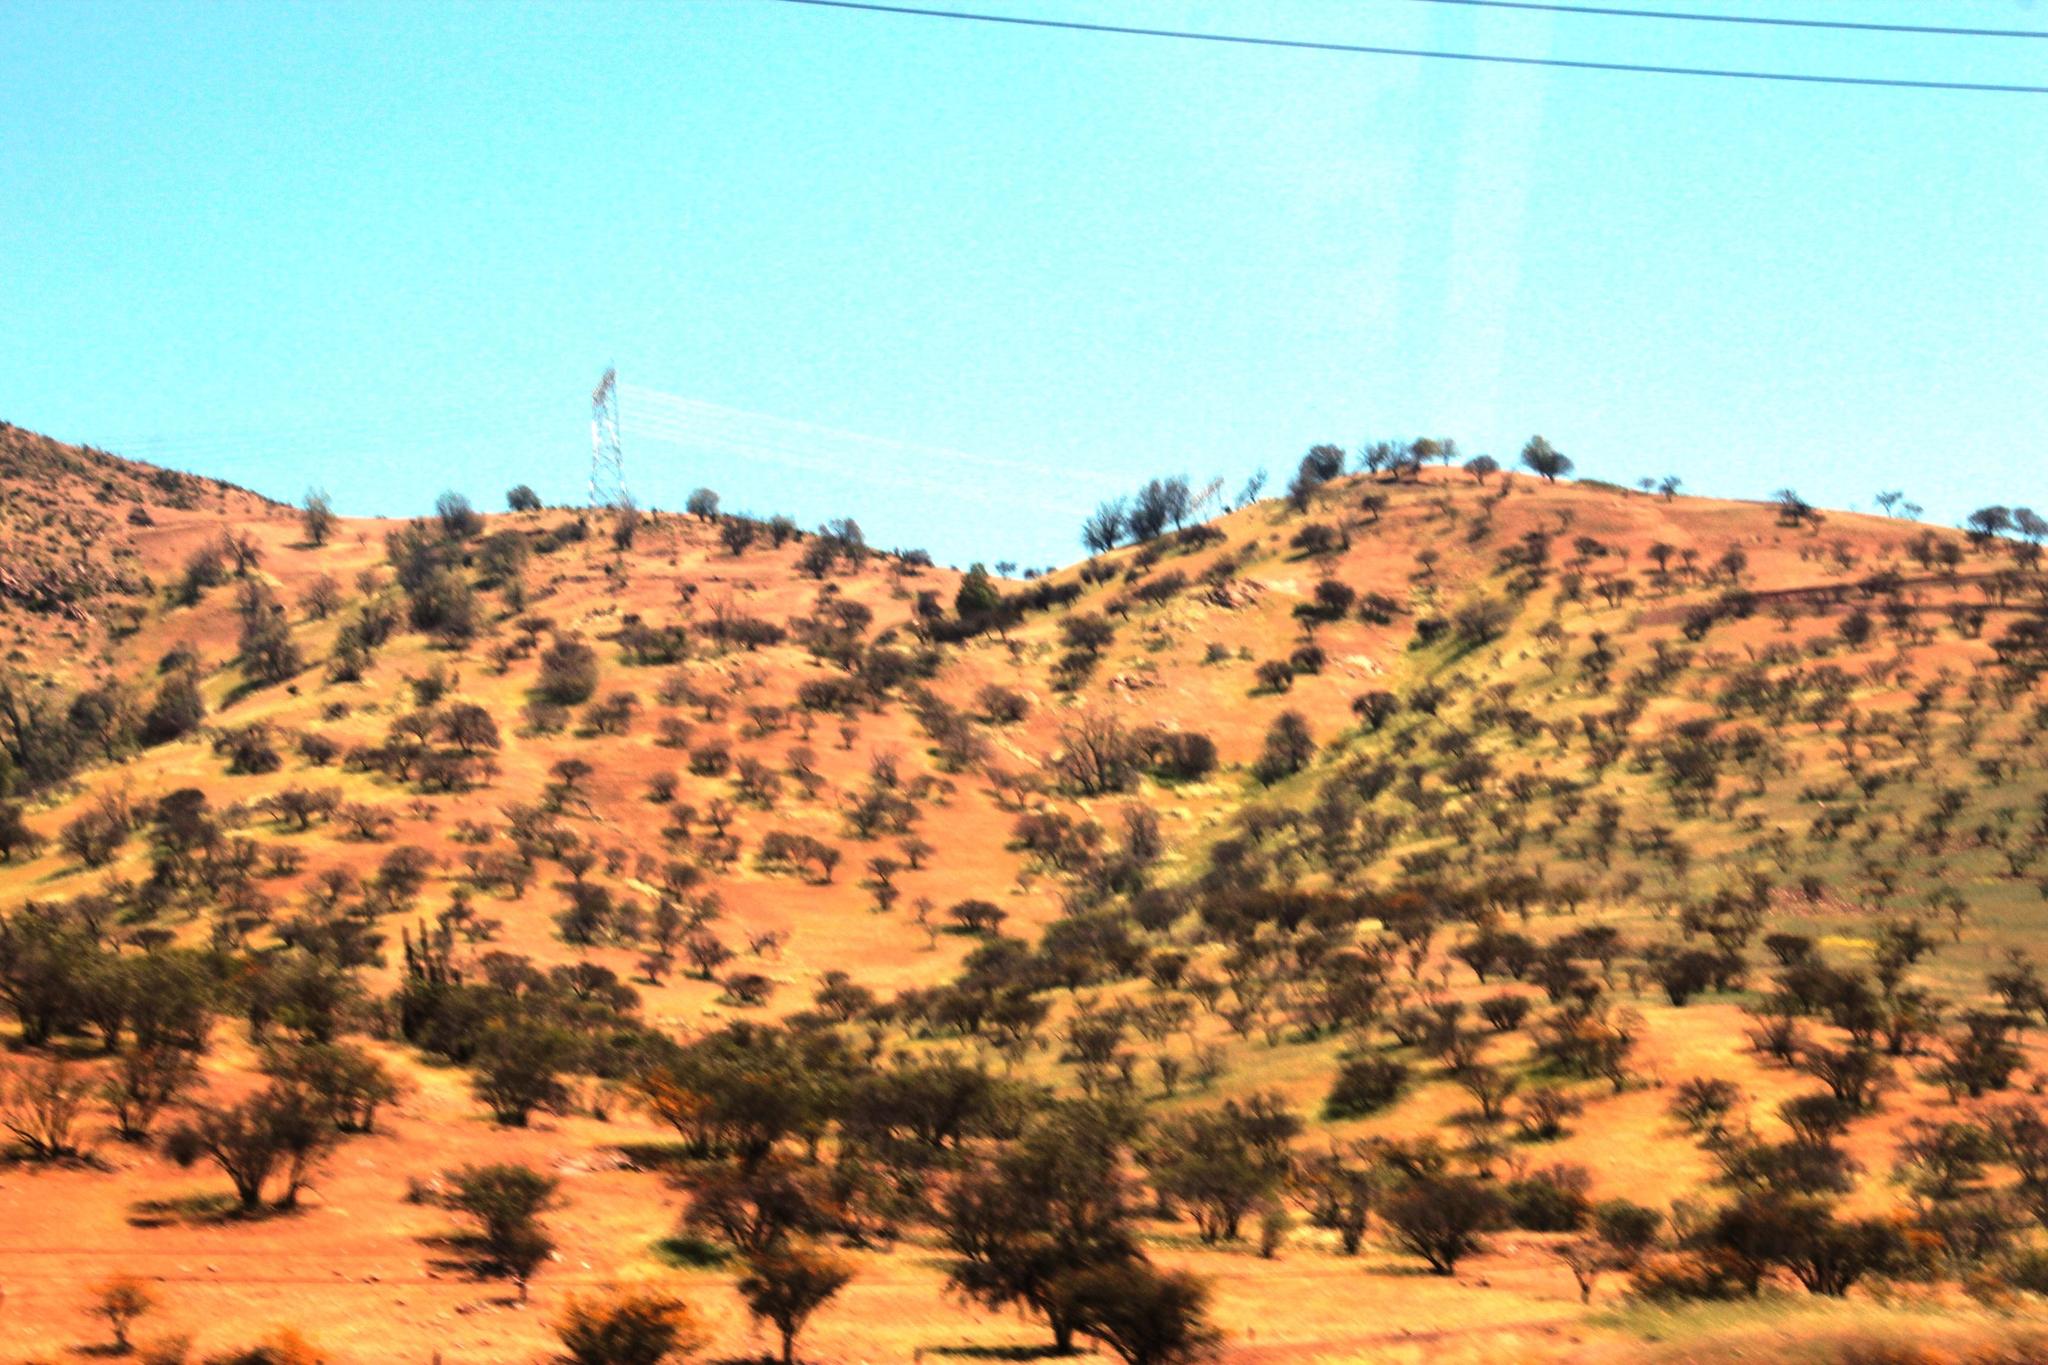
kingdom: Plantae
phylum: Tracheophyta
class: Magnoliopsida
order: Fabales
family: Fabaceae
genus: Vachellia
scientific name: Vachellia caven
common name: Roman cassie
